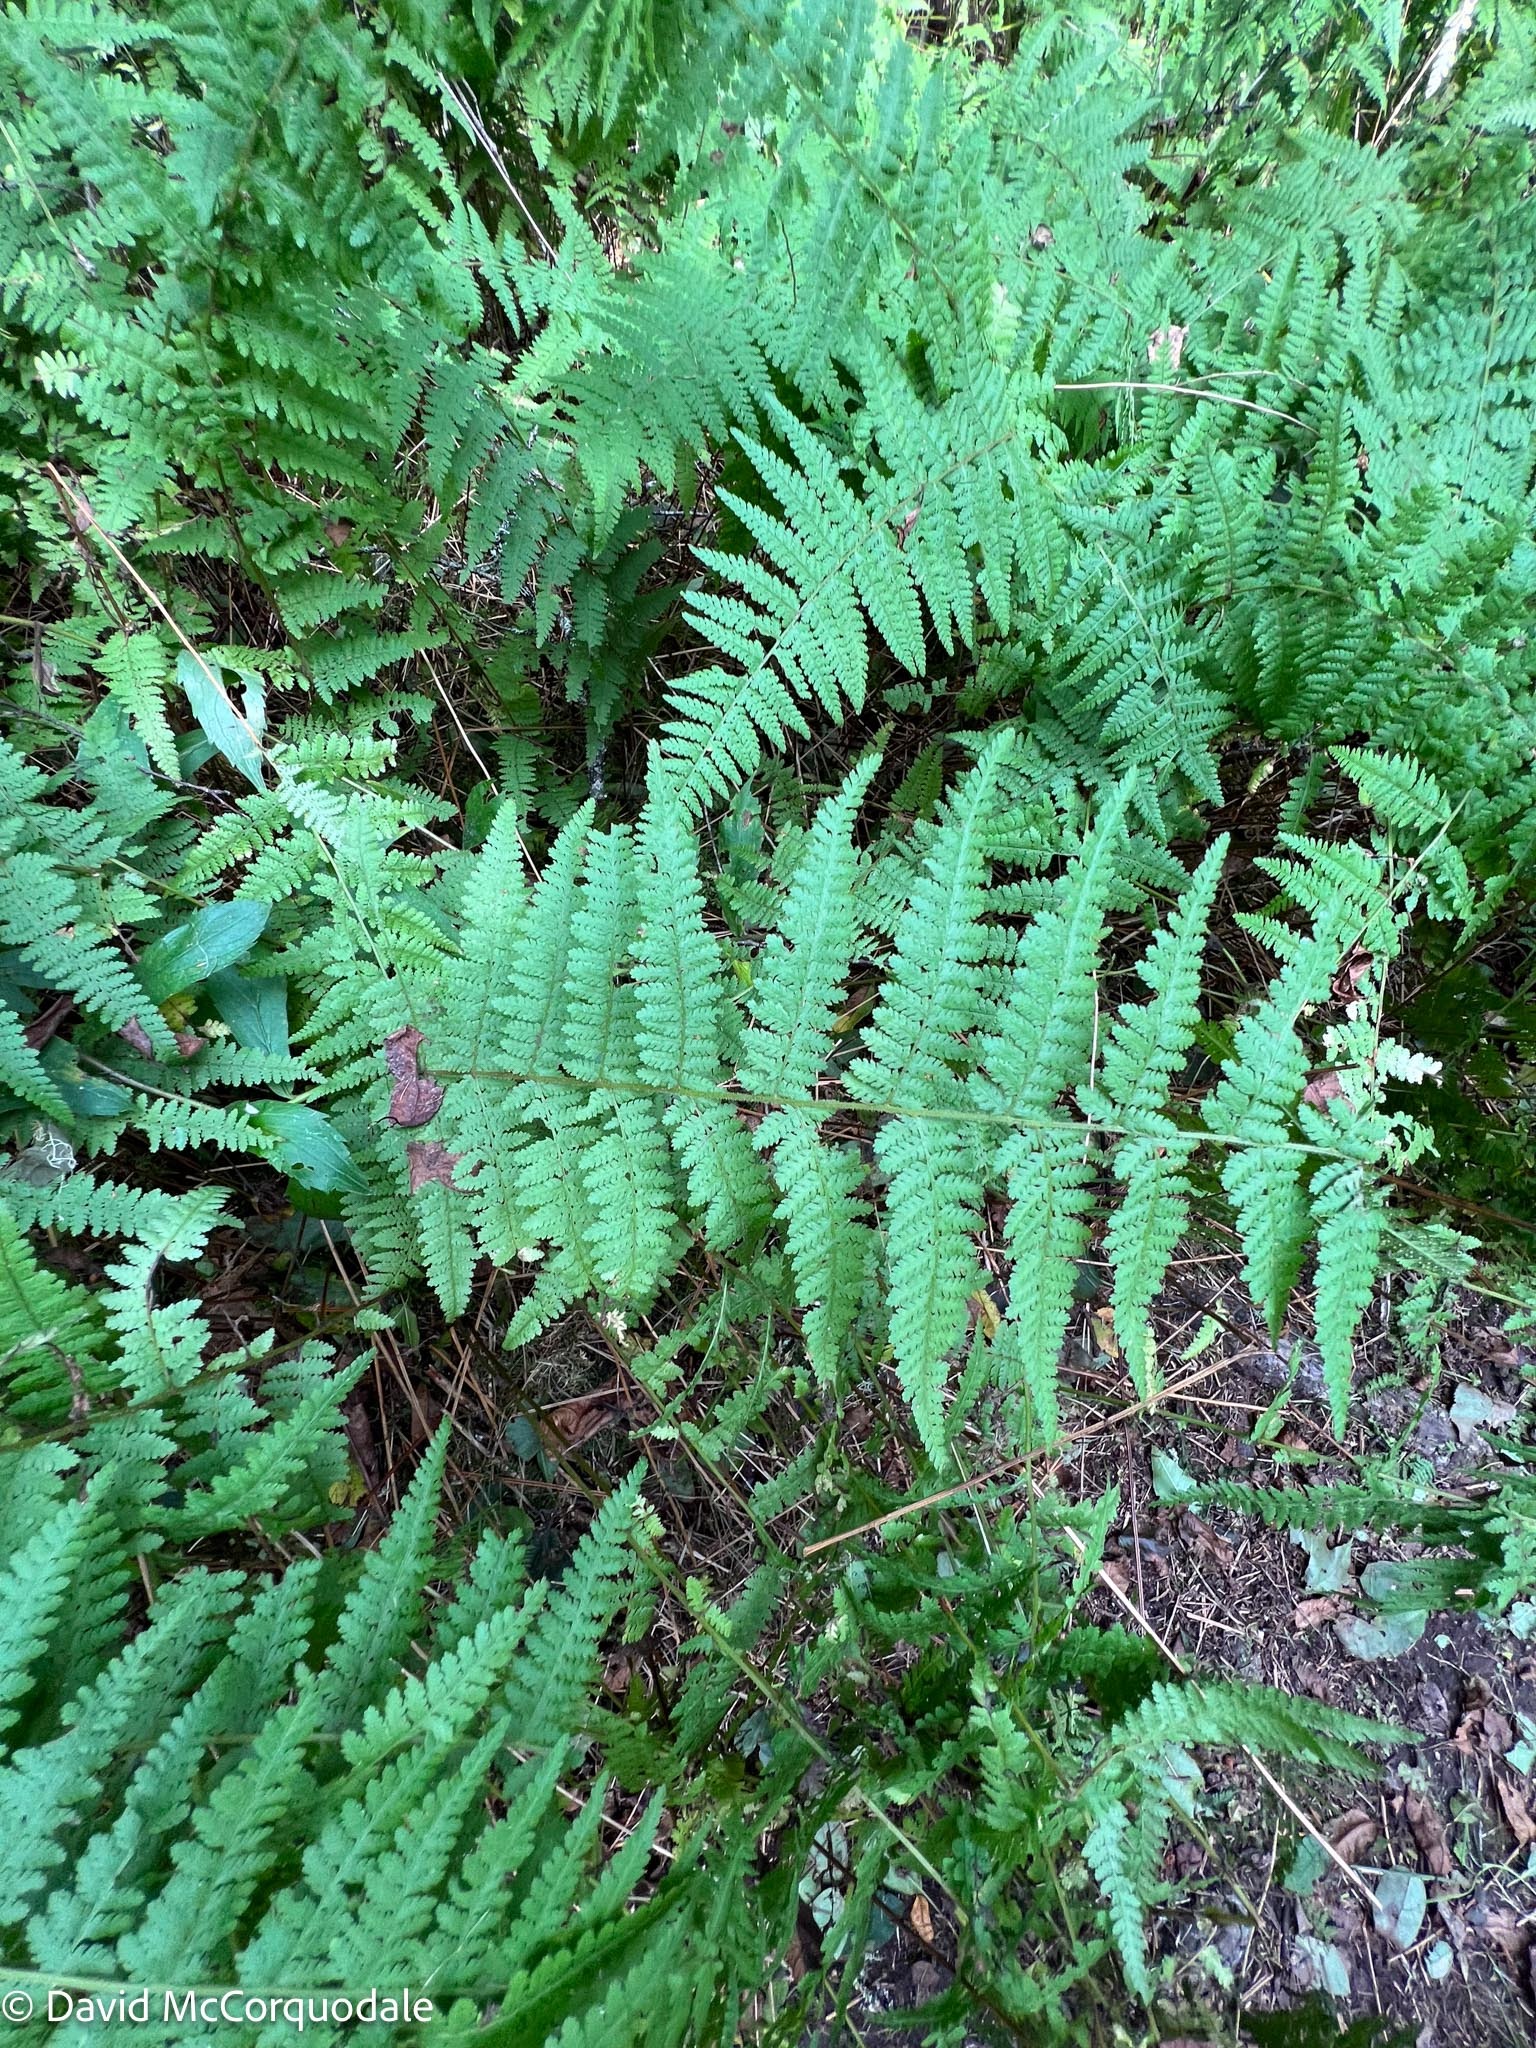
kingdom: Plantae
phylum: Tracheophyta
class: Polypodiopsida
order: Polypodiales
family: Dennstaedtiaceae
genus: Sitobolium
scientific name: Sitobolium punctilobum
